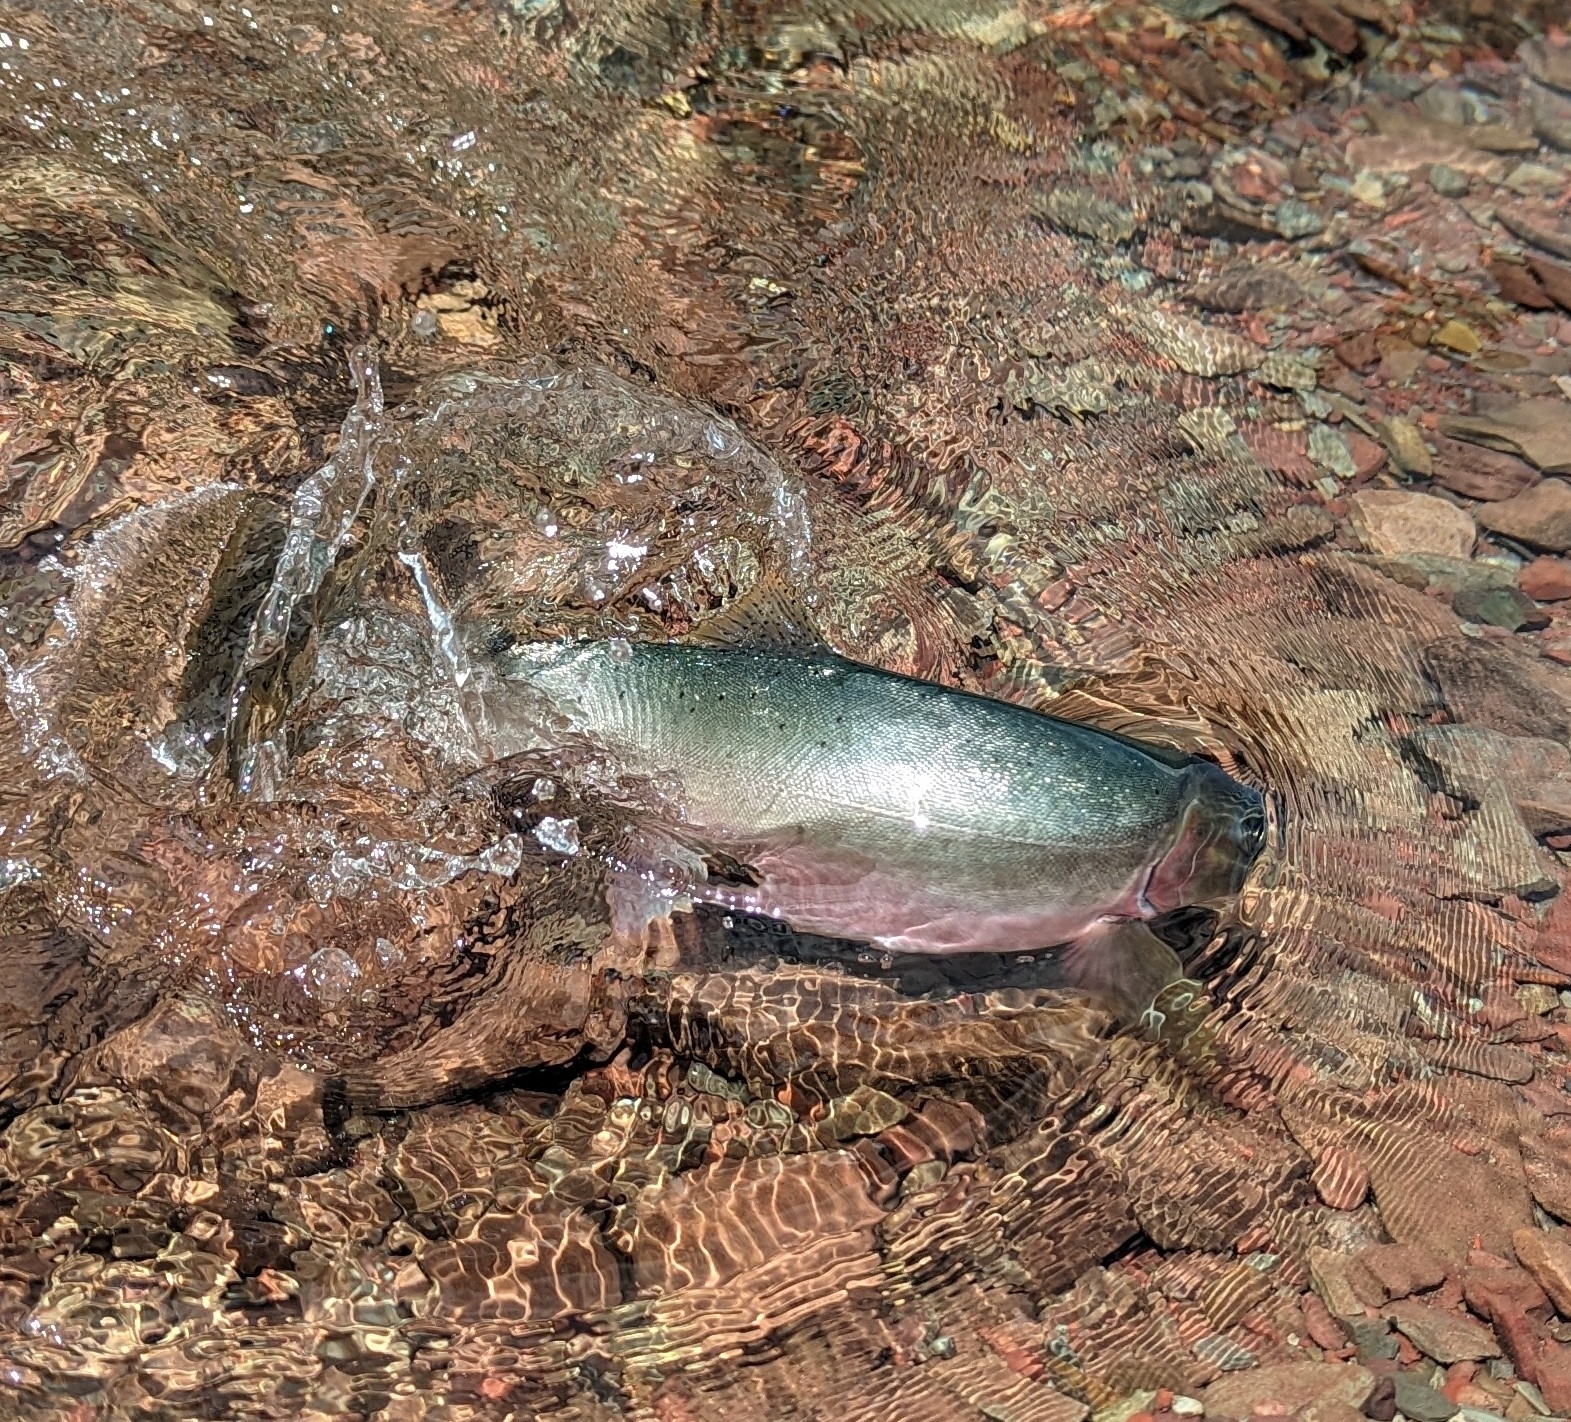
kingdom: Animalia
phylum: Chordata
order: Salmoniformes
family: Salmonidae
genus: Oncorhynchus
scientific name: Oncorhynchus
